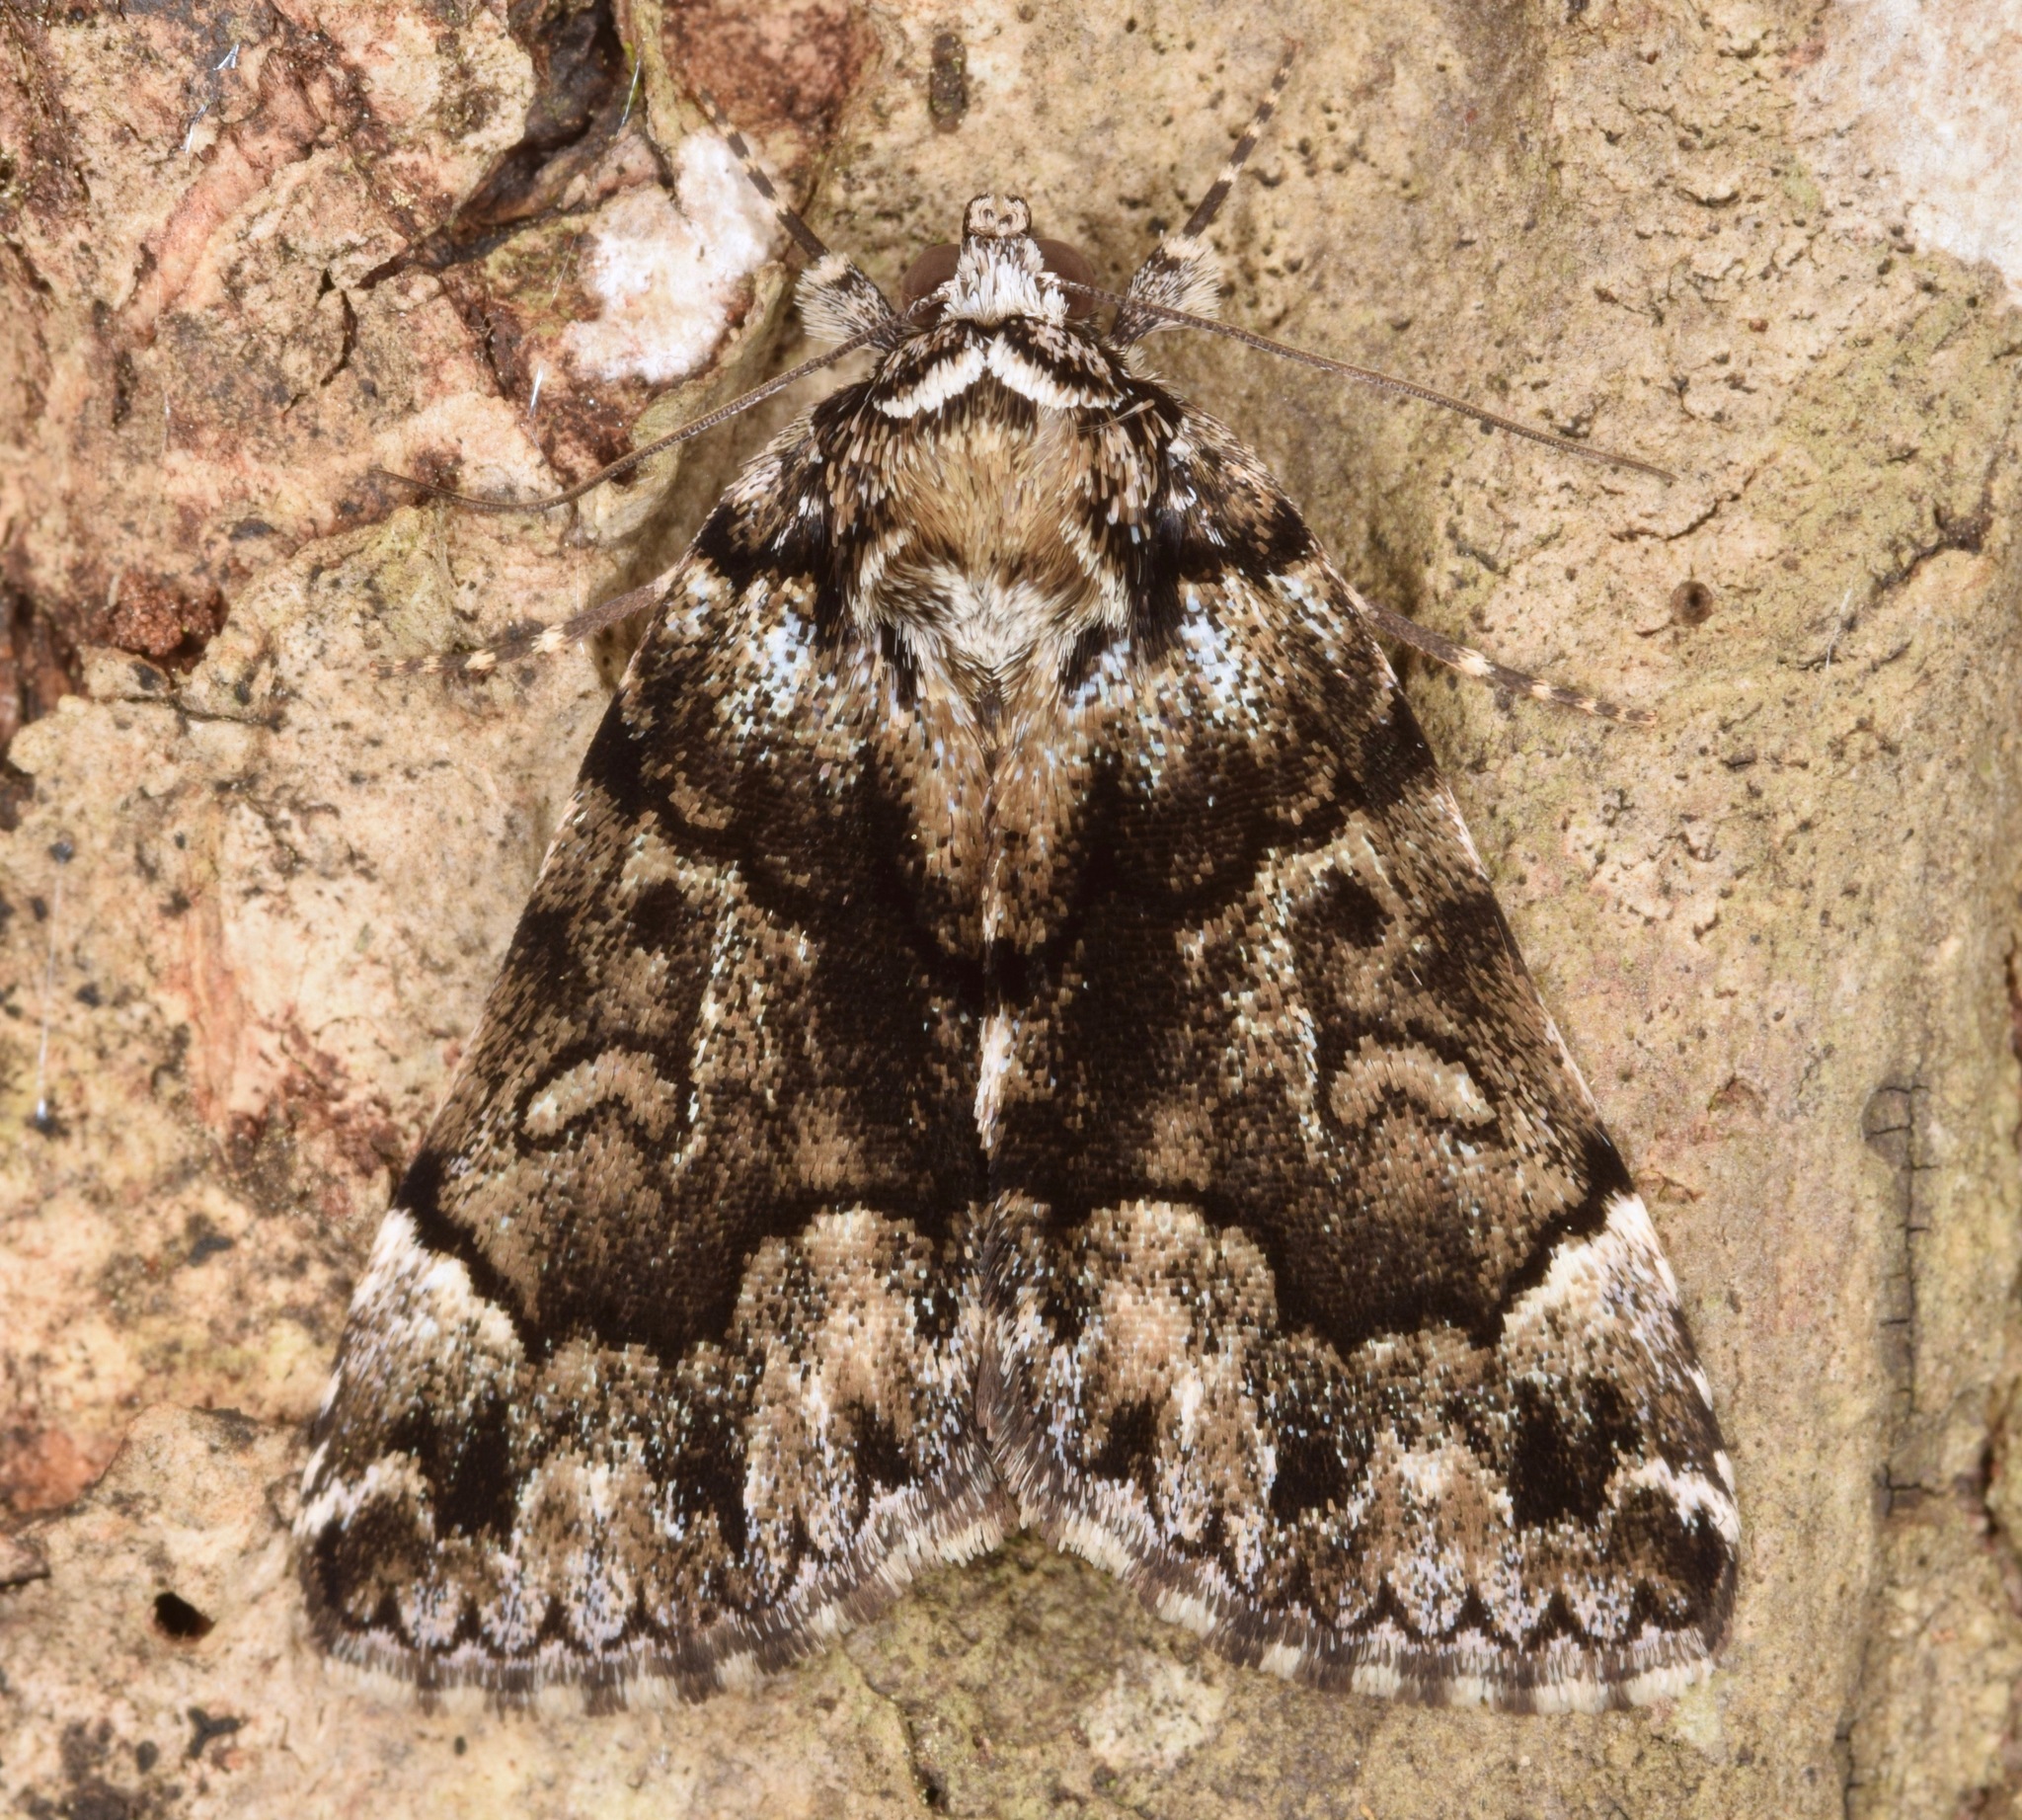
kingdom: Animalia
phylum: Arthropoda
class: Insecta
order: Lepidoptera
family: Erebidae
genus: Allotria
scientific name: Allotria elonympha
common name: False underwing
